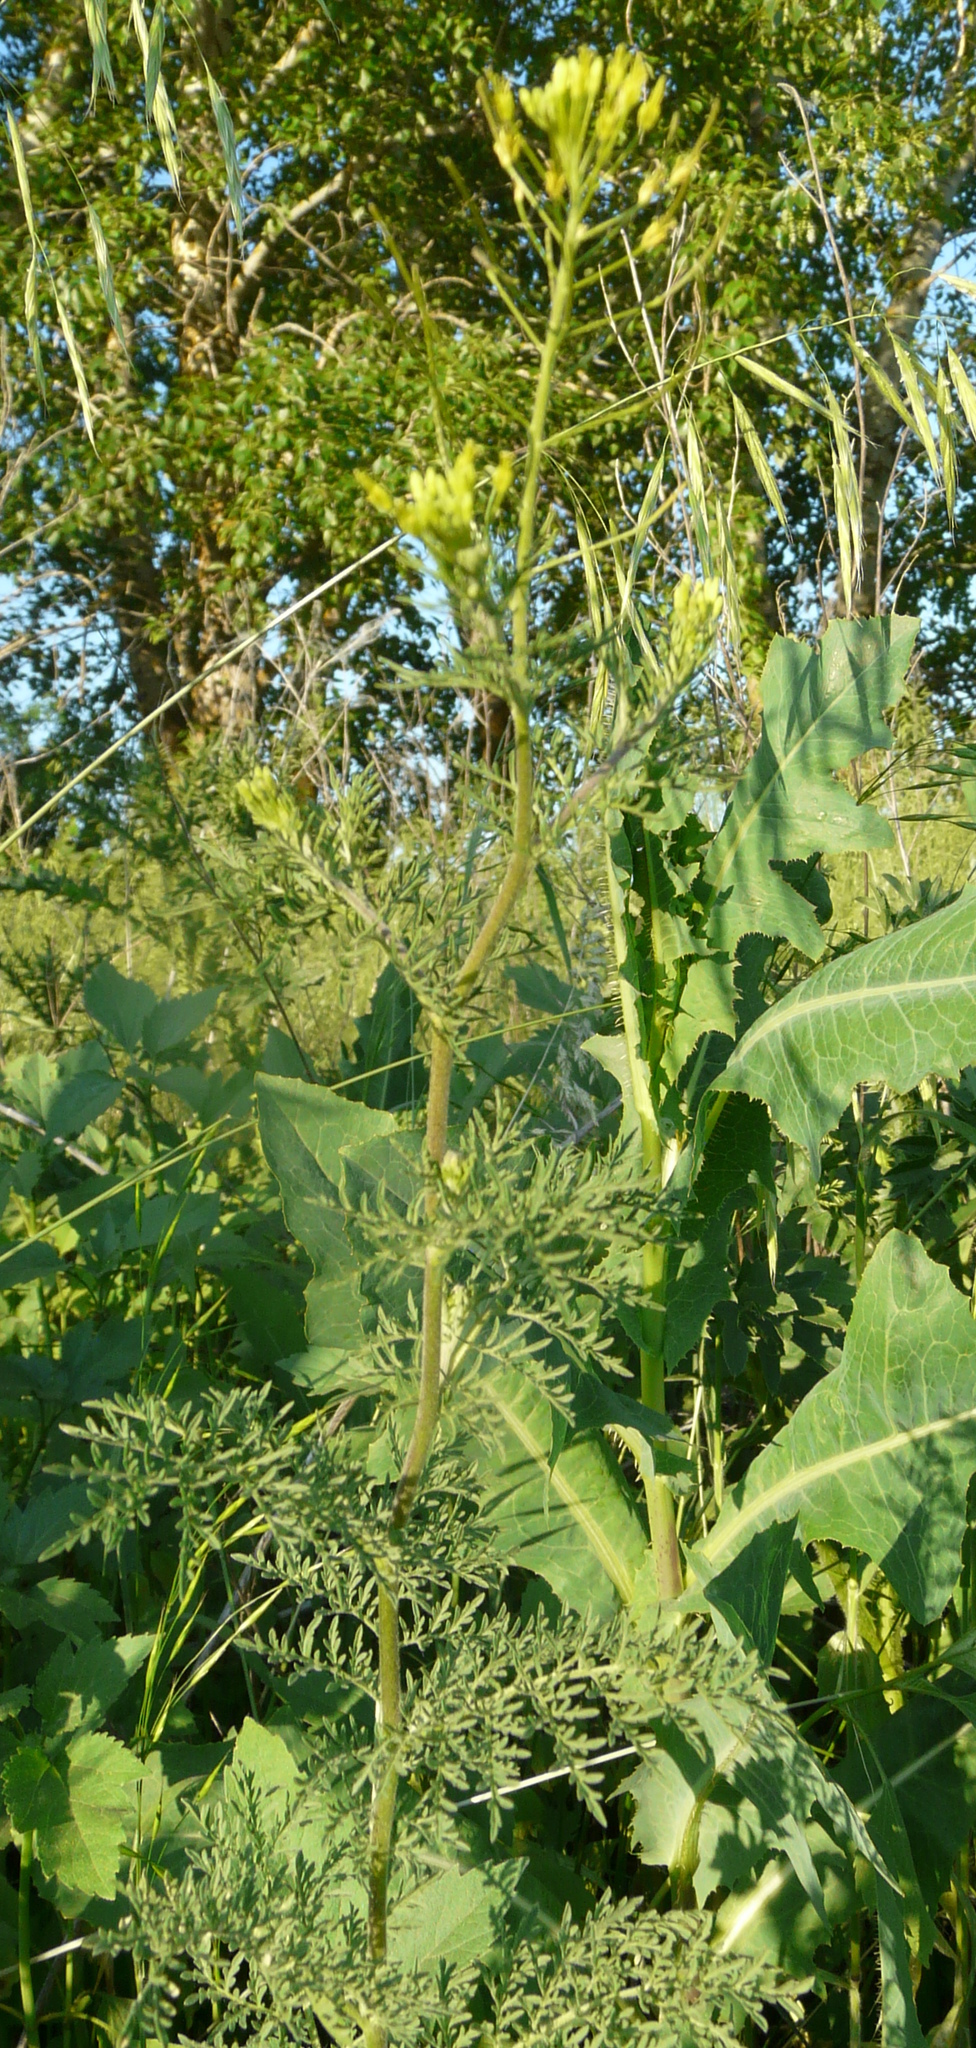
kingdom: Plantae
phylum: Tracheophyta
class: Magnoliopsida
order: Brassicales
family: Brassicaceae
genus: Descurainia
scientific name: Descurainia sophia
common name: Flixweed
